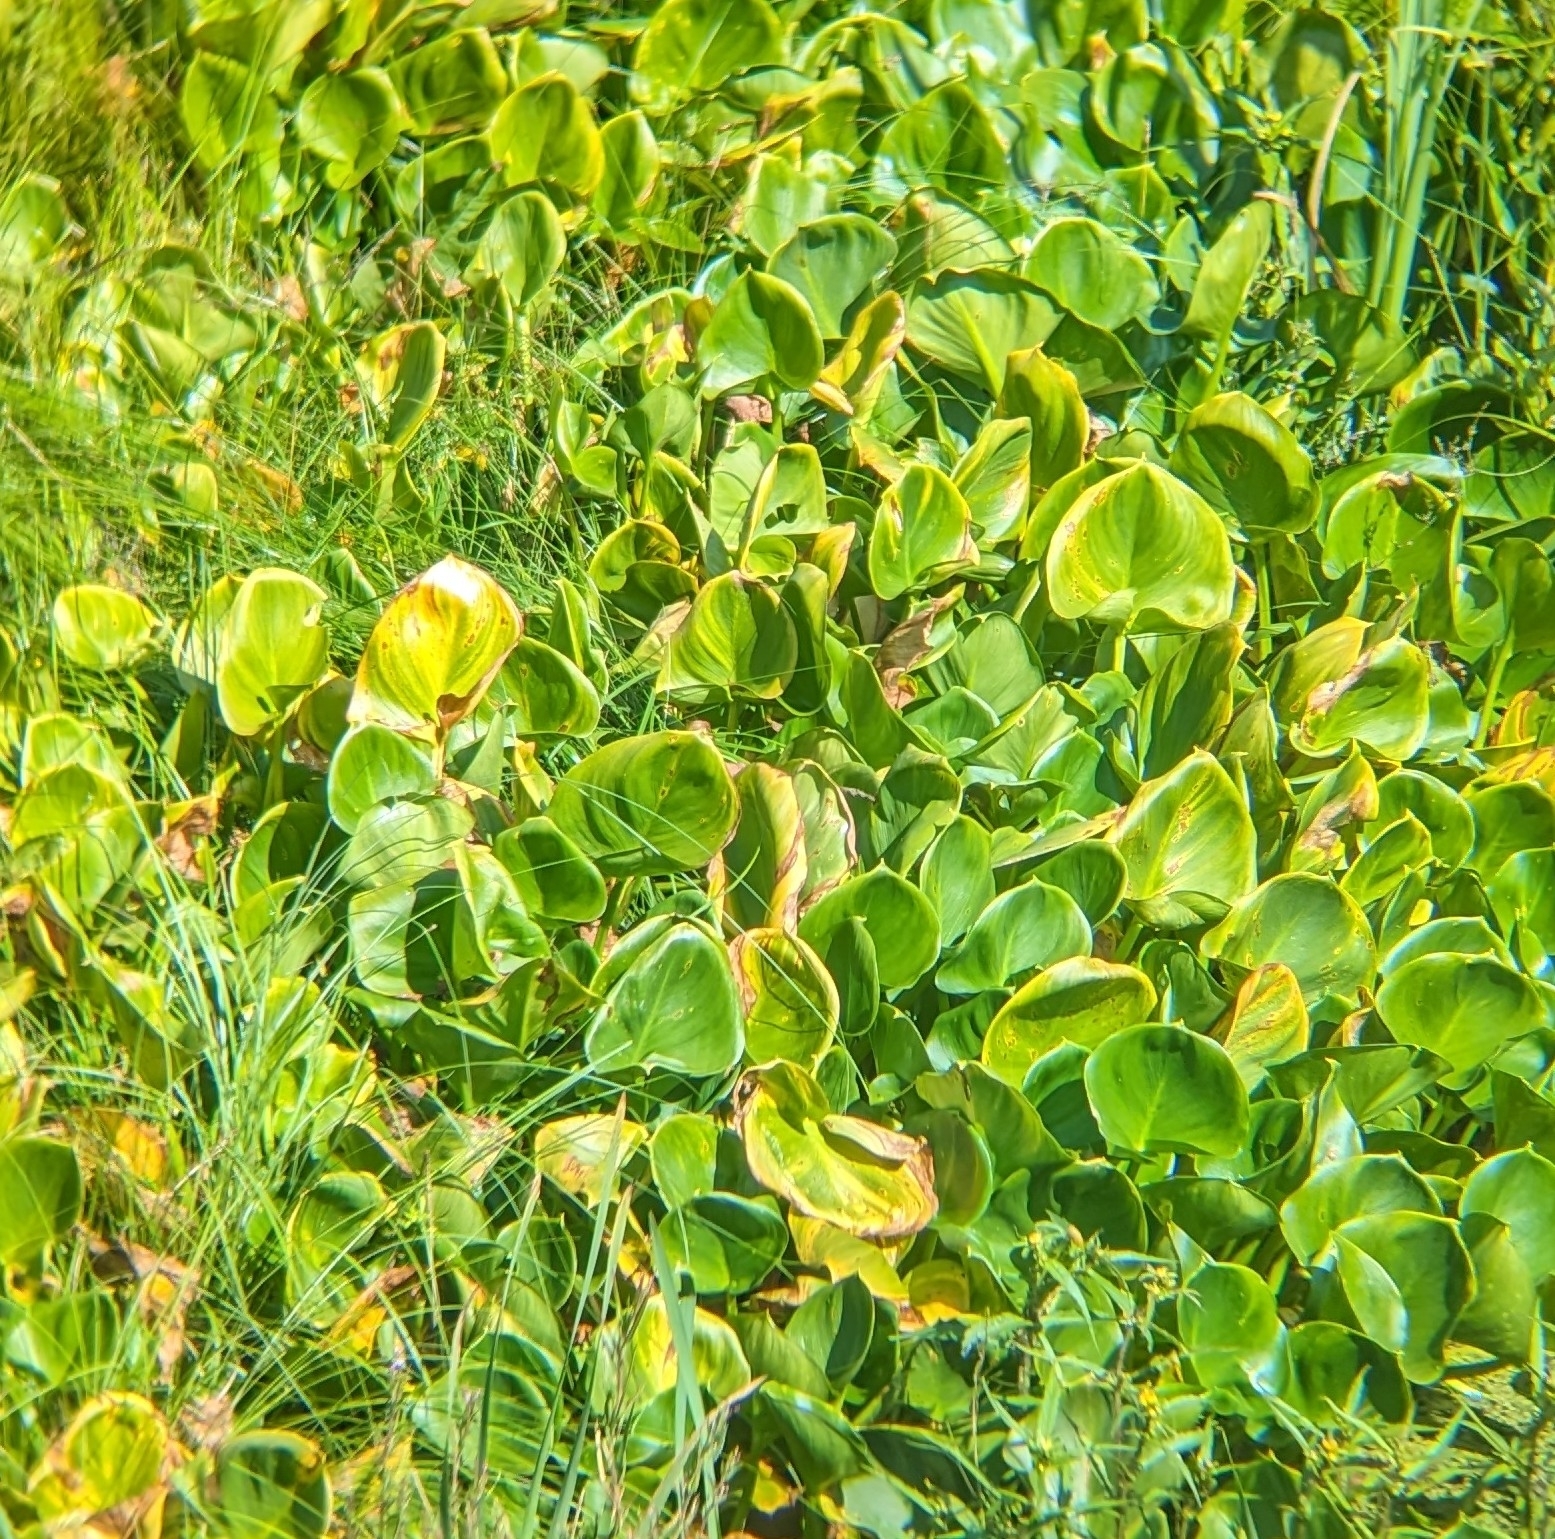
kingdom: Plantae
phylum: Tracheophyta
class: Liliopsida
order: Alismatales
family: Araceae
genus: Calla
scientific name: Calla palustris
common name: Bog arum
